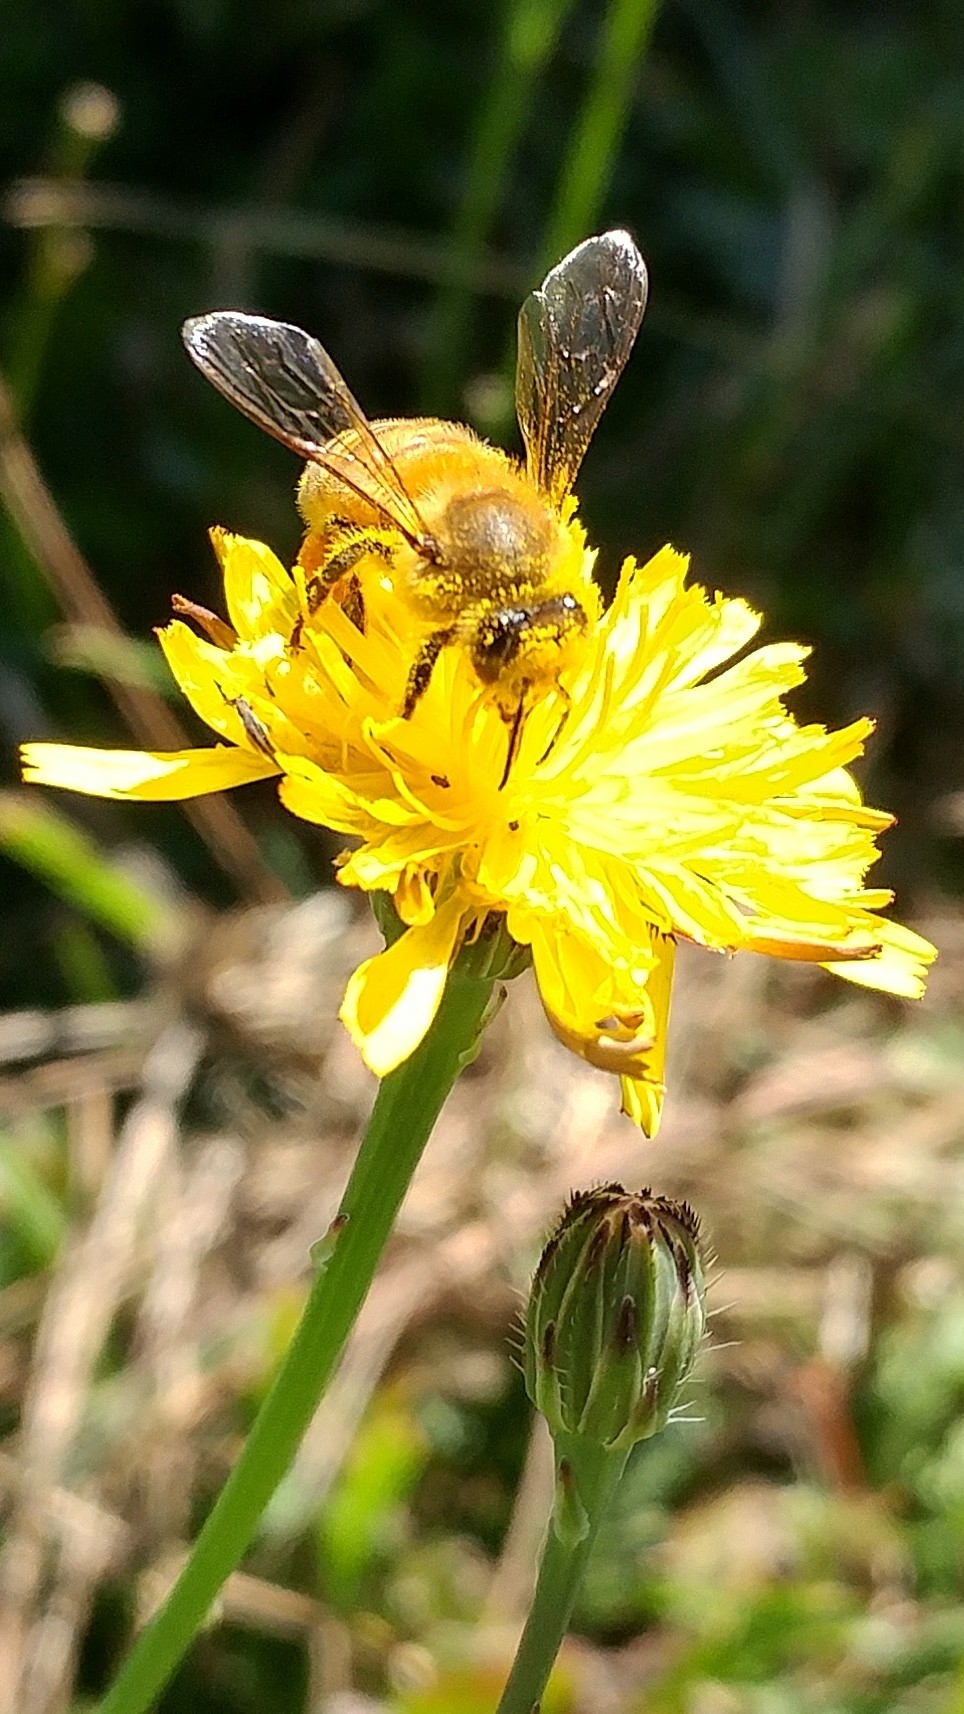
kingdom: Animalia
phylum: Arthropoda
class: Insecta
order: Hymenoptera
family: Apidae
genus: Apis
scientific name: Apis mellifera
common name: Honey bee
